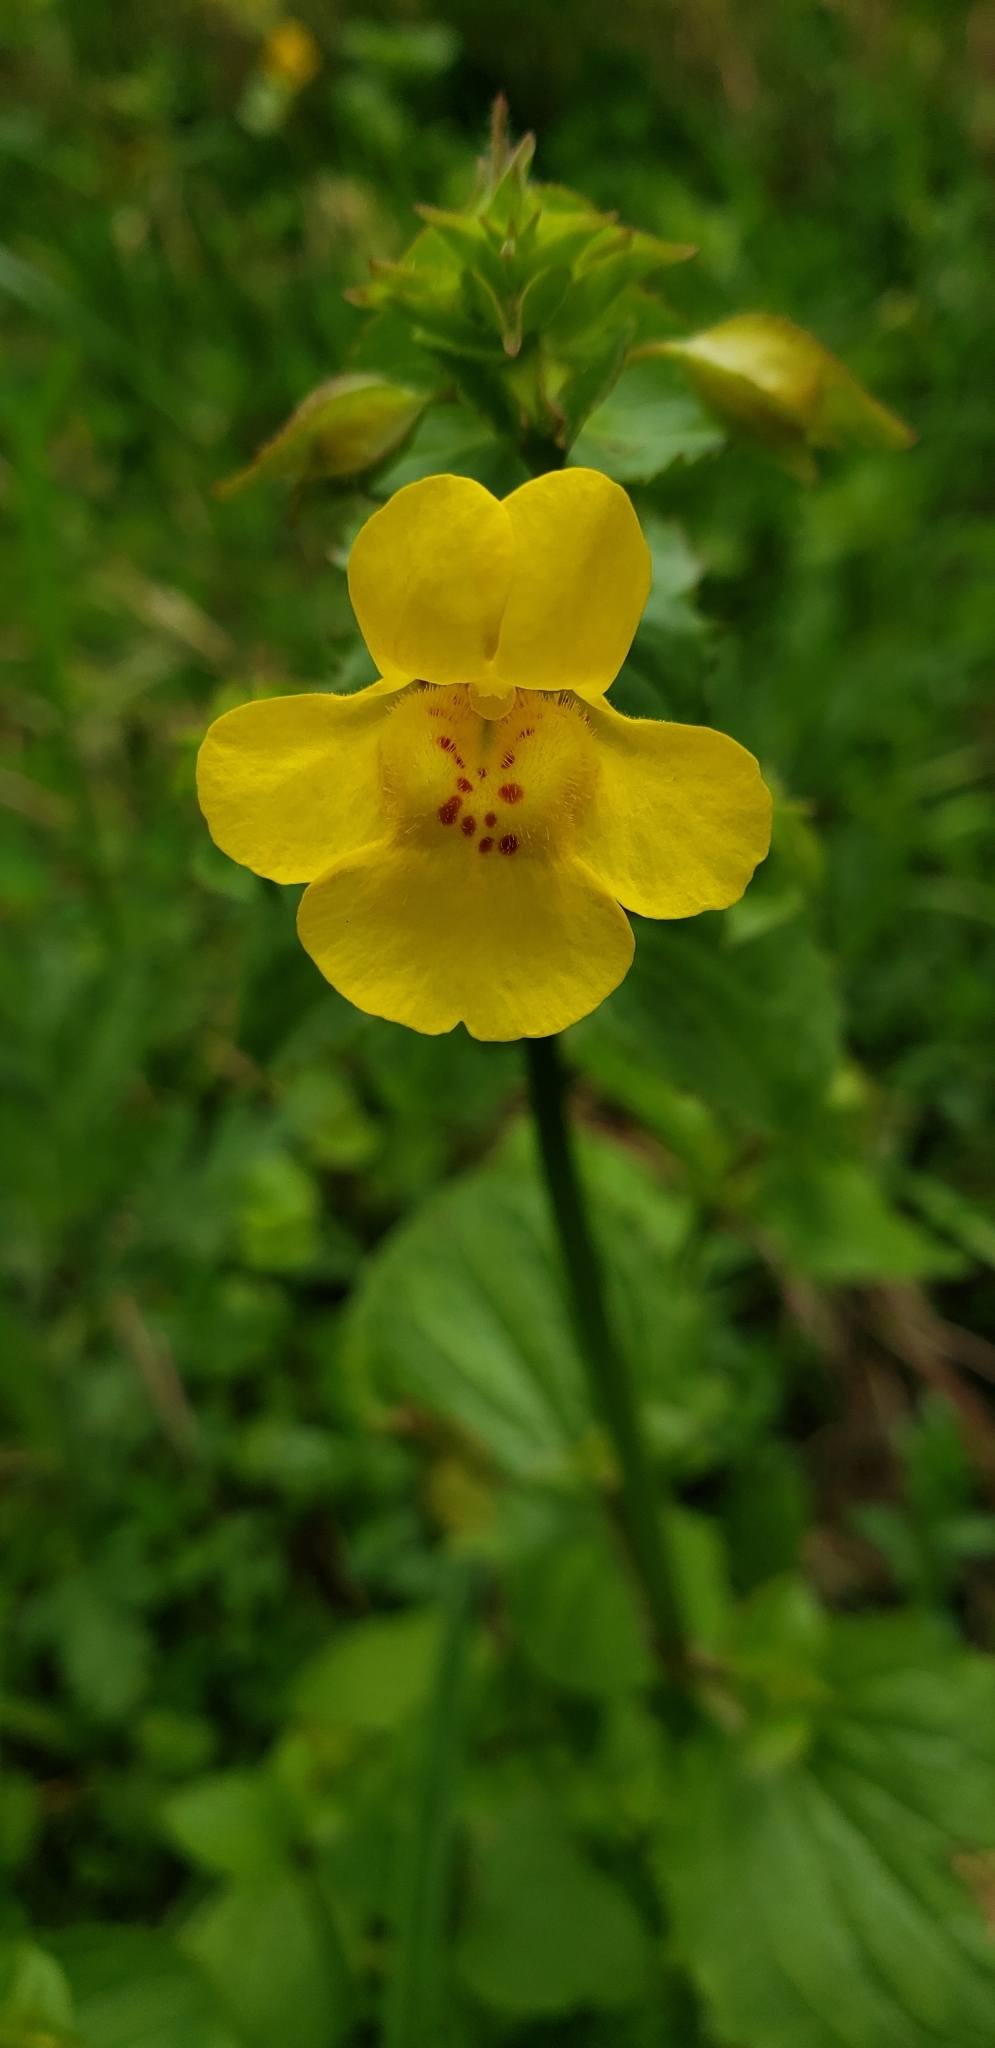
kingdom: Plantae
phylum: Tracheophyta
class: Magnoliopsida
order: Lamiales
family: Phrymaceae
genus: Erythranthe
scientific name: Erythranthe guttata
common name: Monkeyflower
